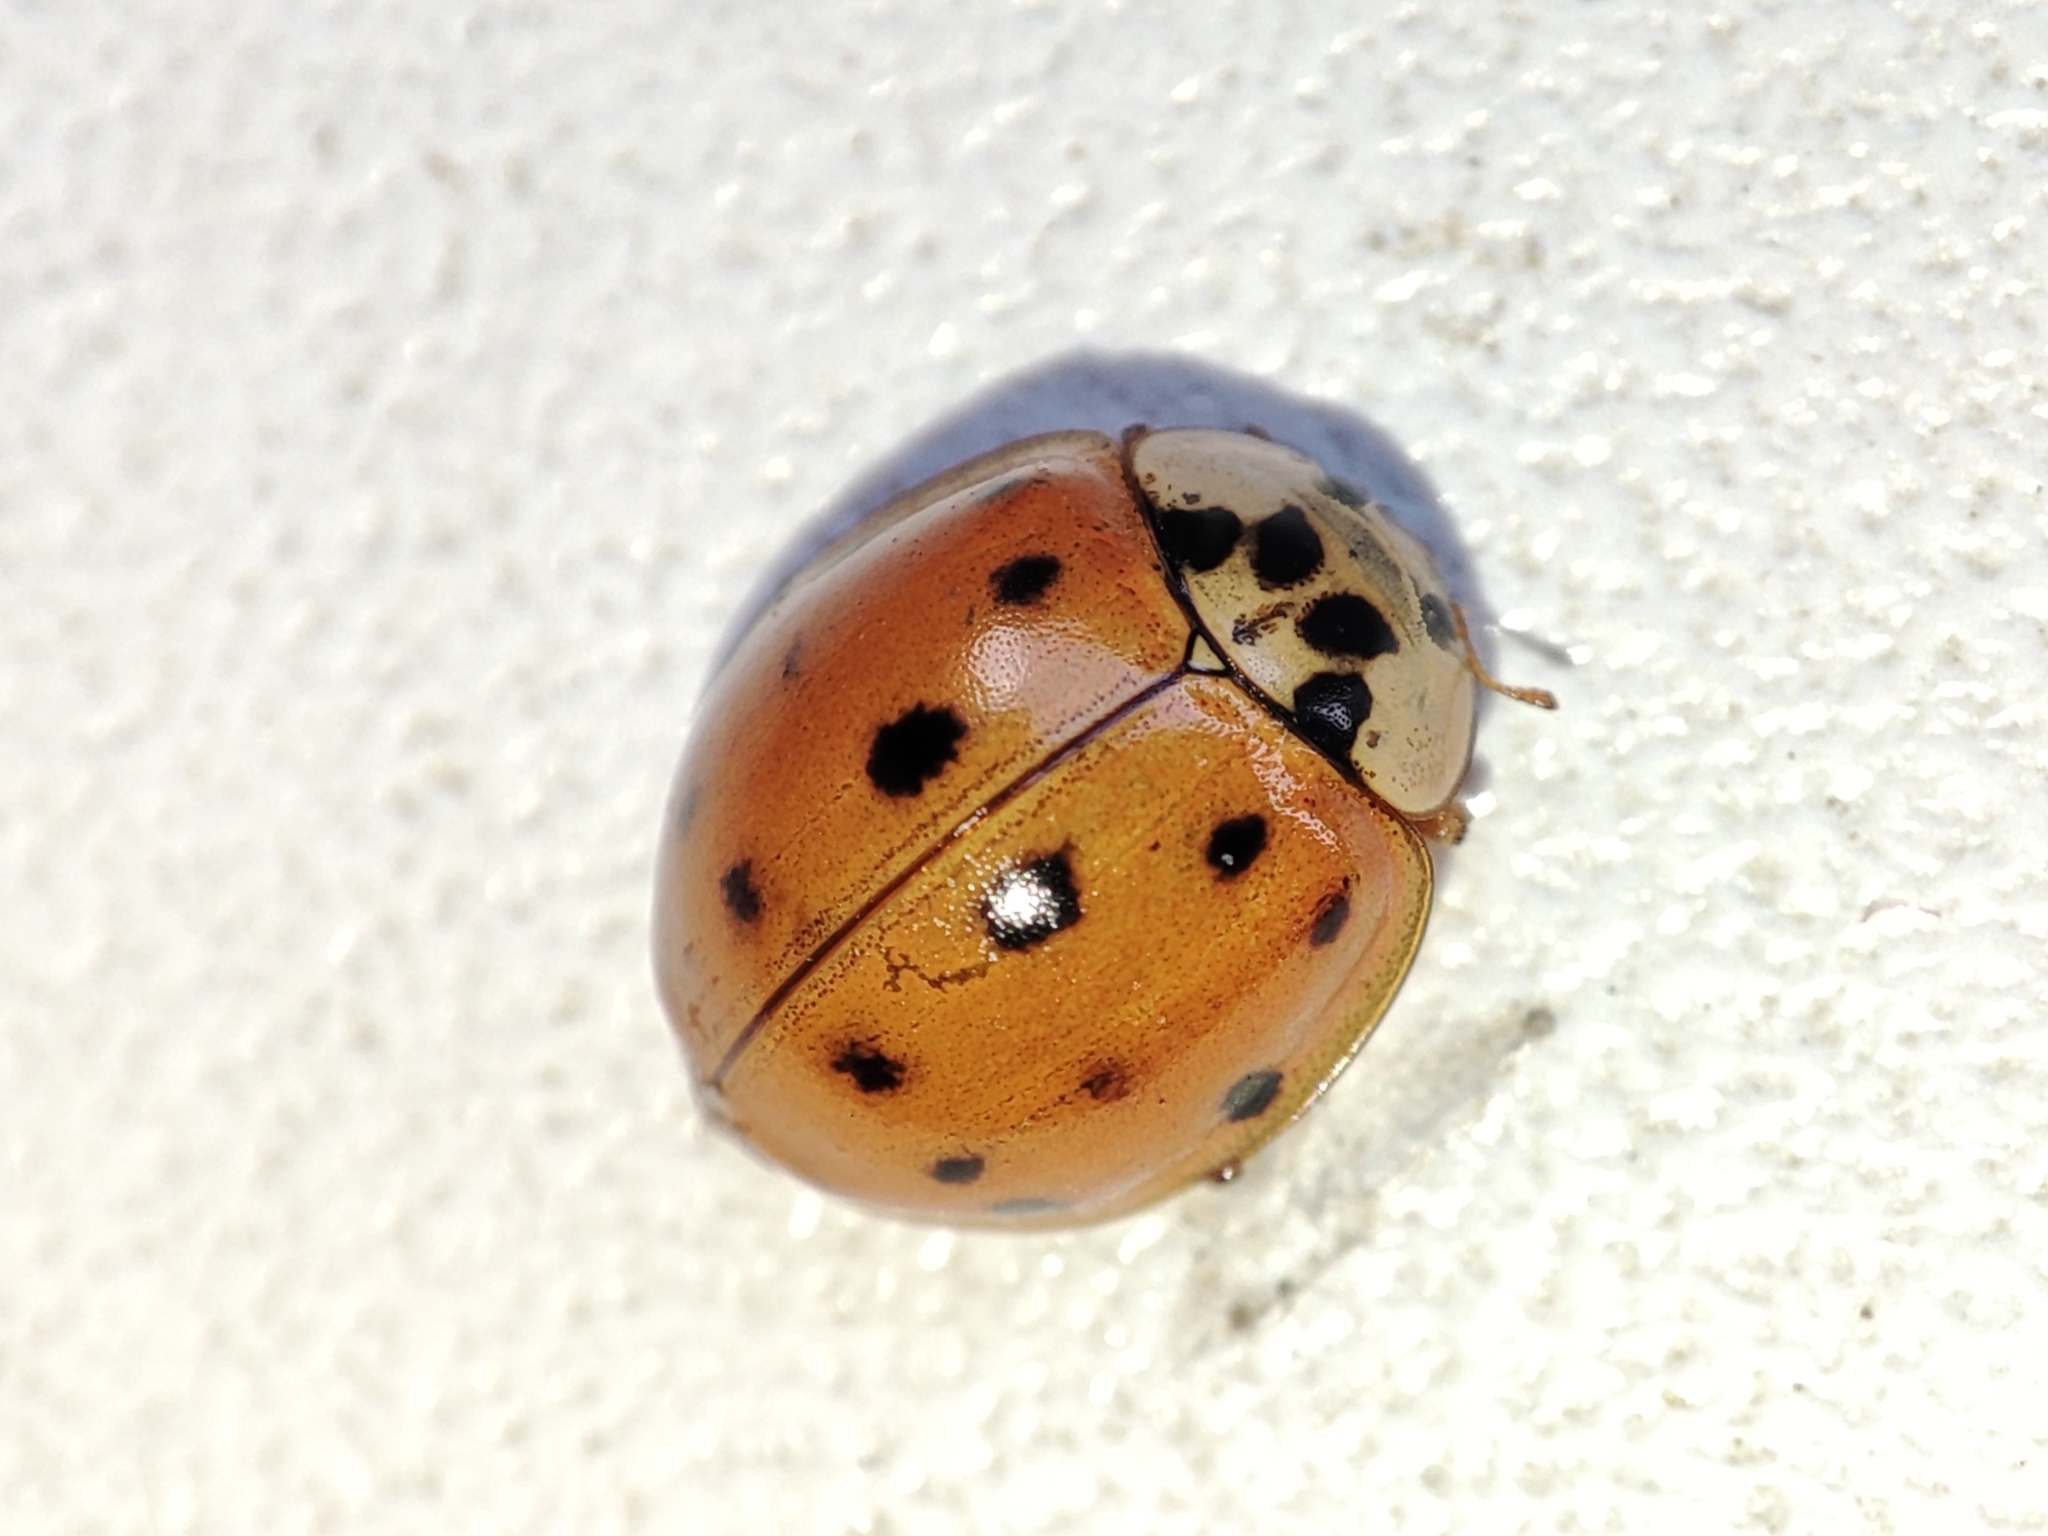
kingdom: Animalia
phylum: Arthropoda
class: Insecta
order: Coleoptera
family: Coccinellidae
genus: Harmonia
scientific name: Harmonia axyridis
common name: Harlequin ladybird
